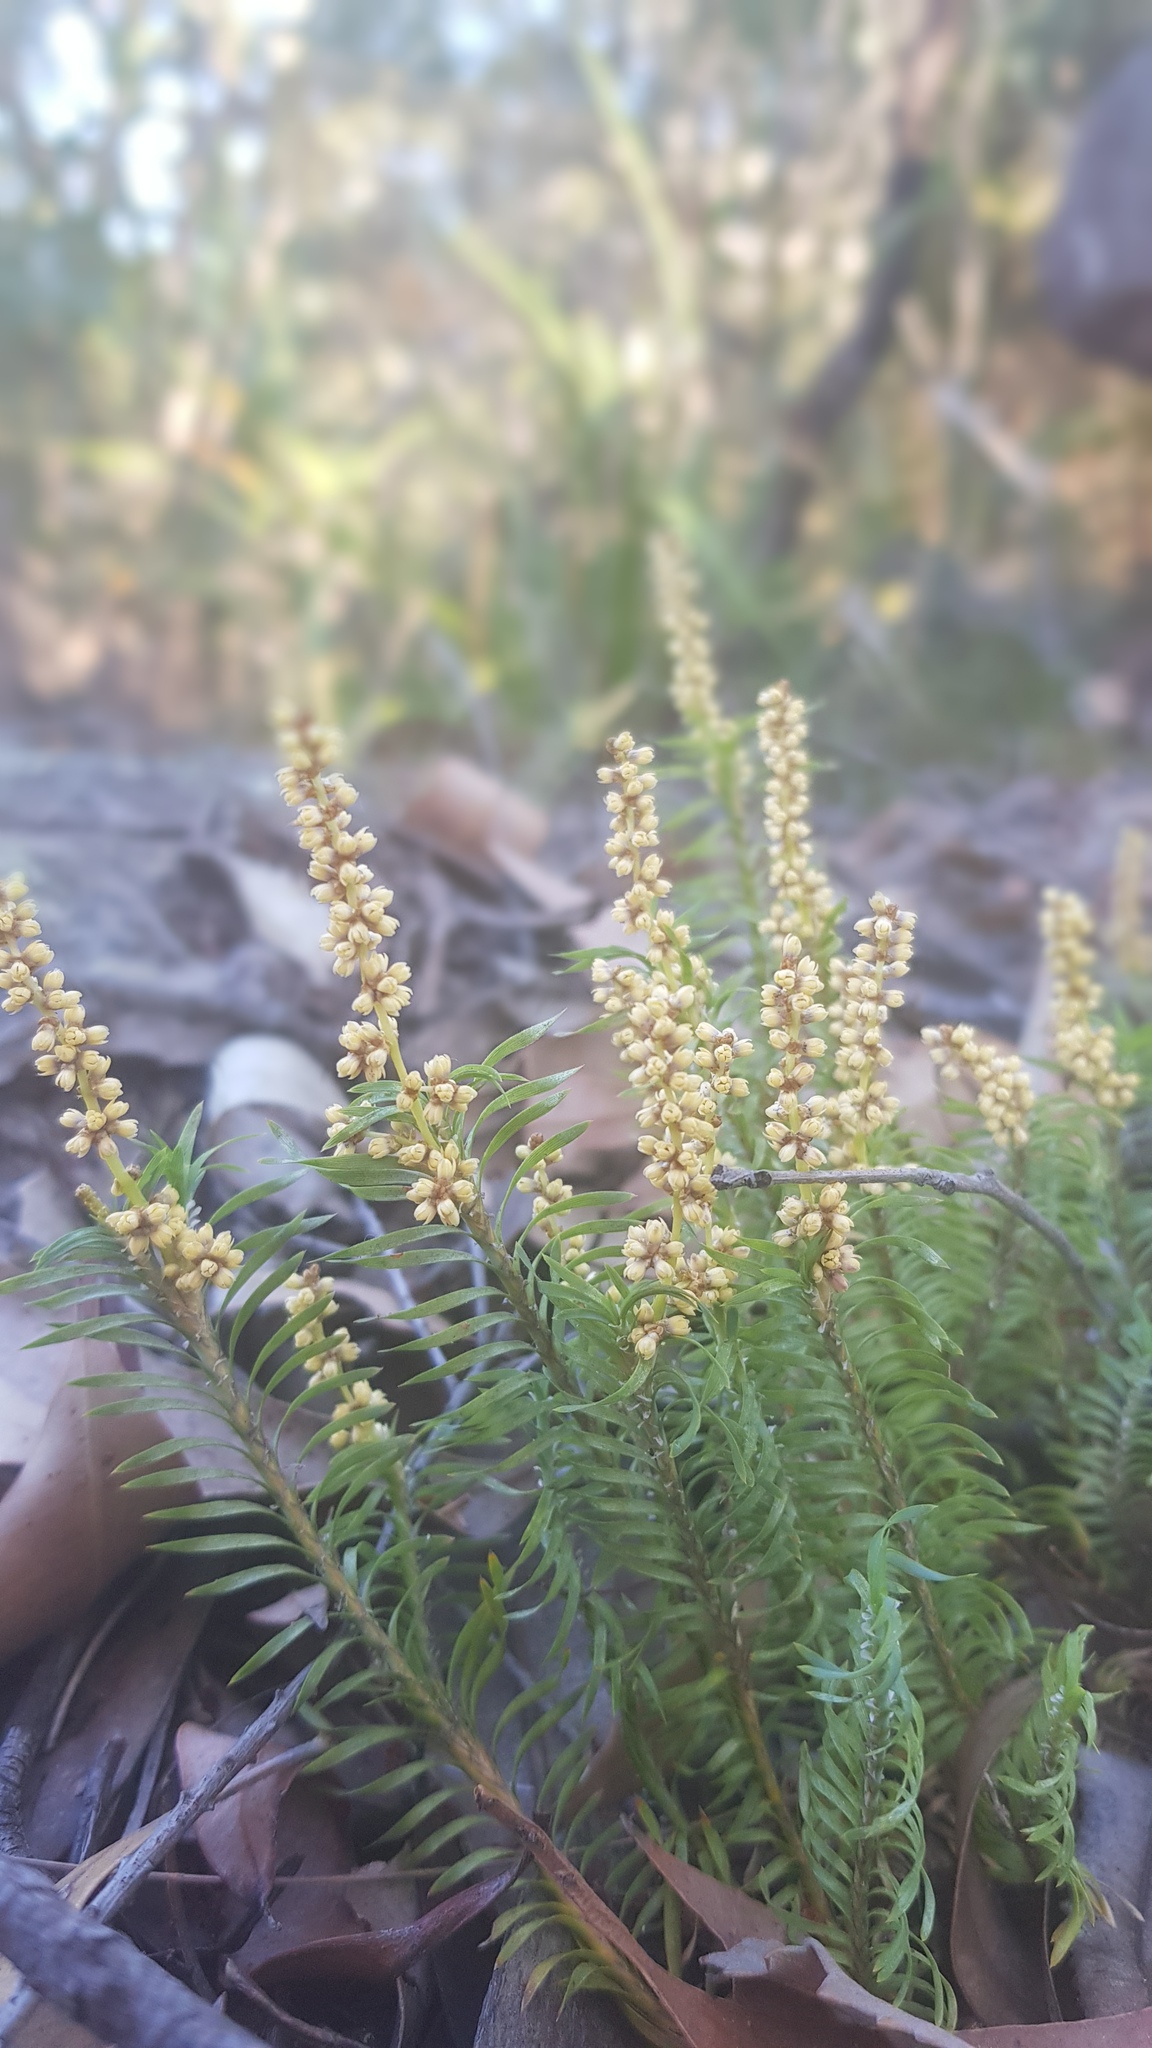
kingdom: Plantae
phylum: Tracheophyta
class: Liliopsida
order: Asparagales
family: Asparagaceae
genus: Lomandra
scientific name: Lomandra obliqua
